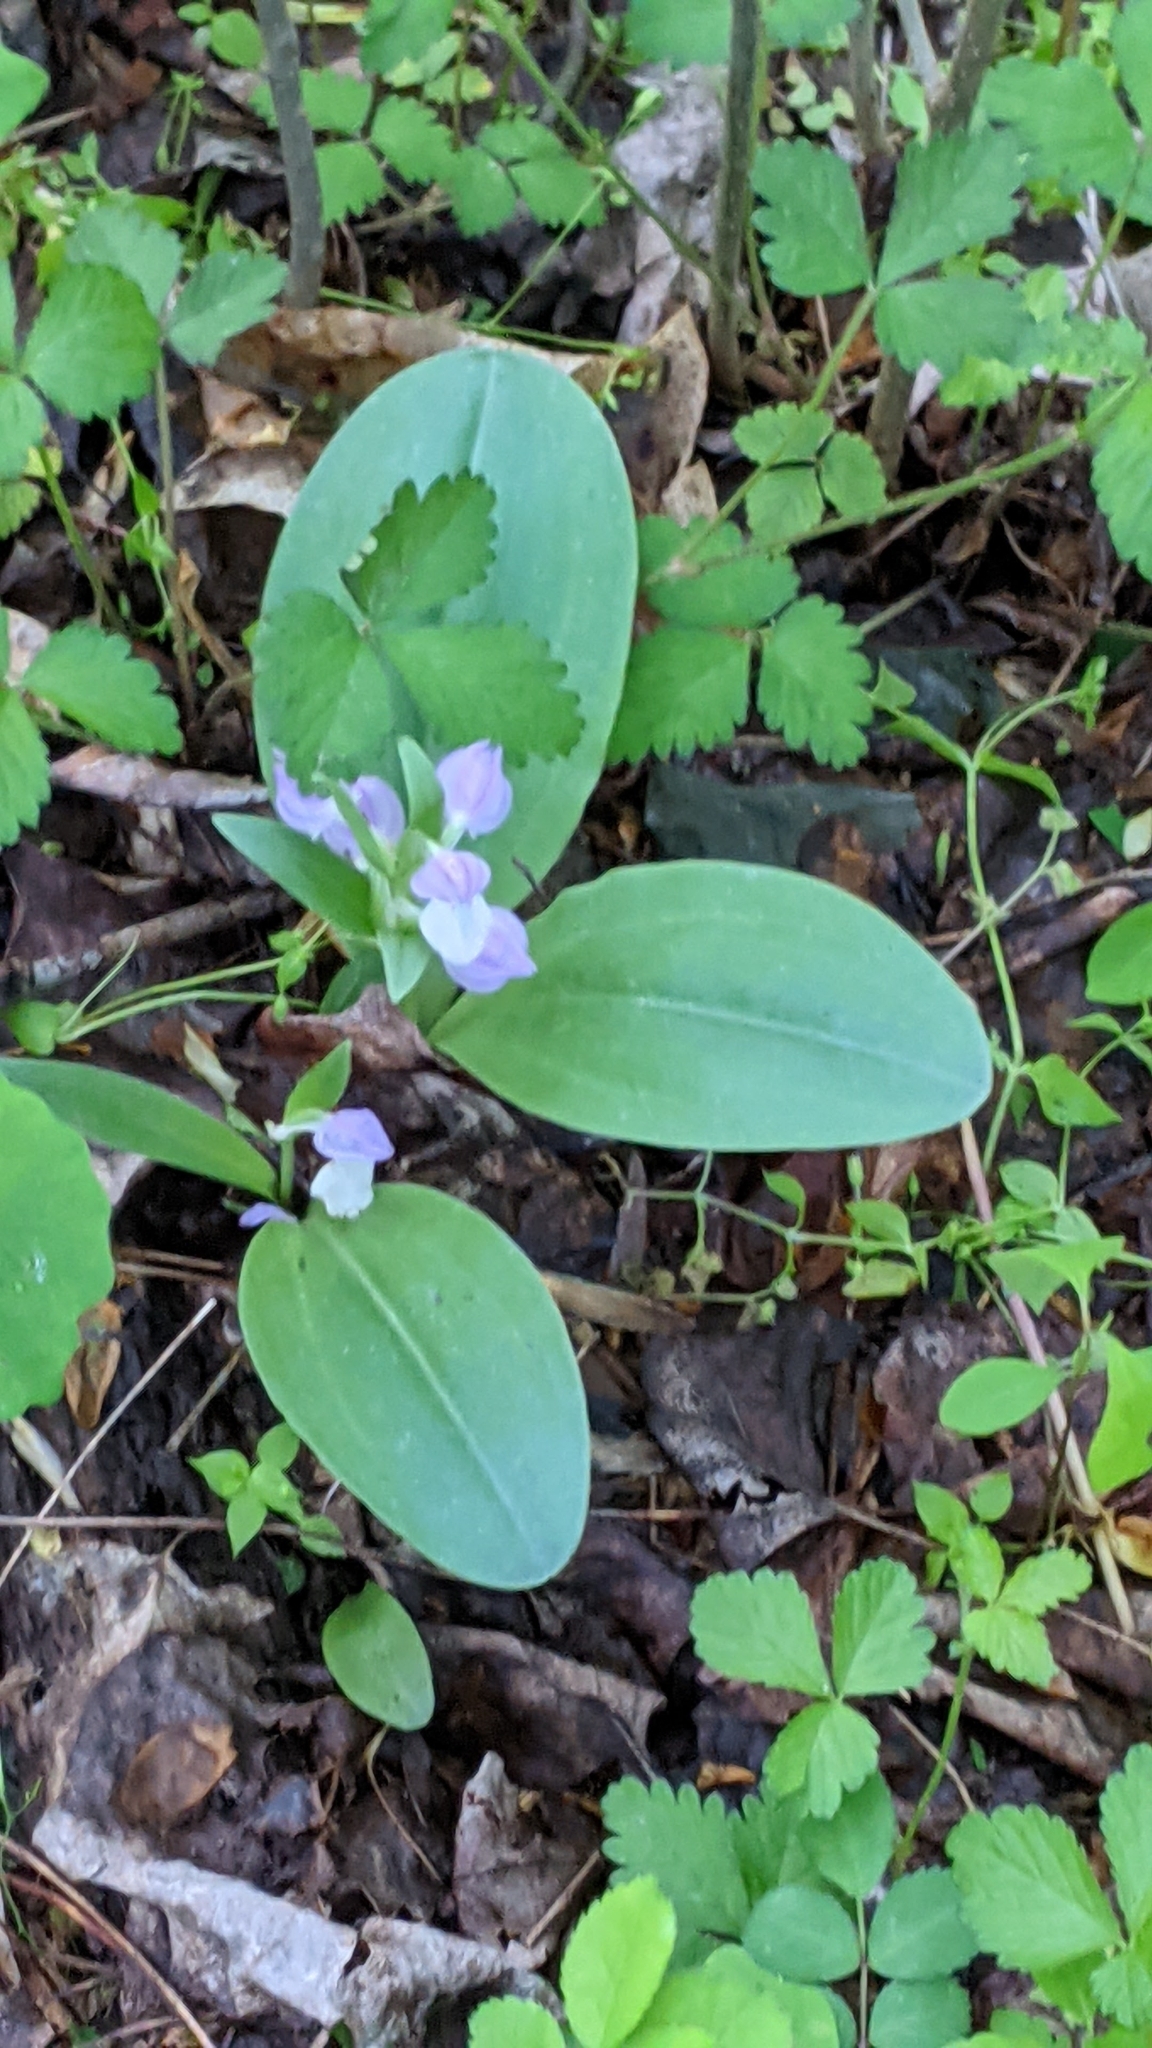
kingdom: Plantae
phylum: Tracheophyta
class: Liliopsida
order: Asparagales
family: Orchidaceae
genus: Galearis
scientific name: Galearis spectabilis
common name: Purple-hooded orchis
